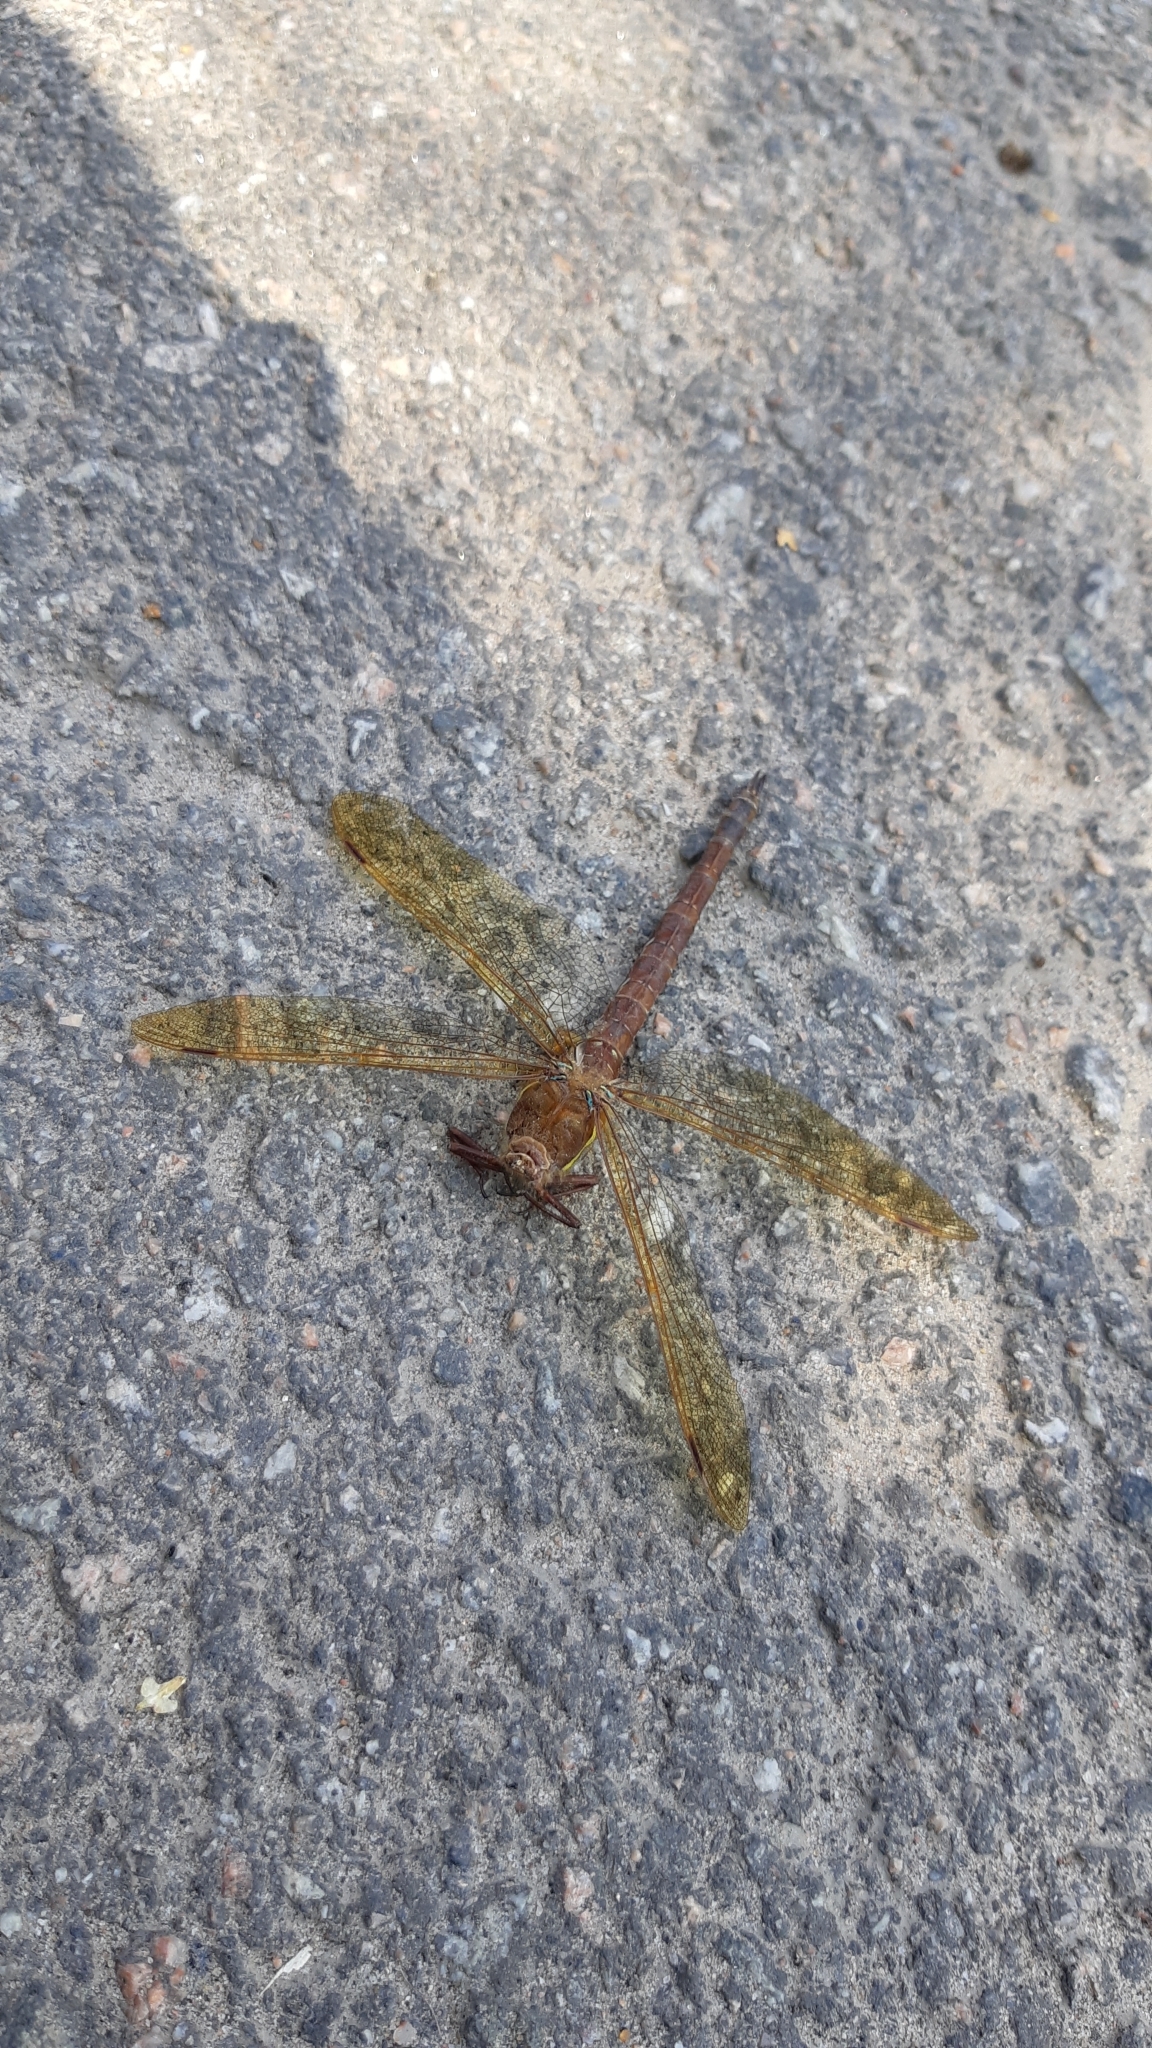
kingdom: Animalia
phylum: Arthropoda
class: Insecta
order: Odonata
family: Aeshnidae
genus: Aeshna
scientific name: Aeshna grandis
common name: Brown hawker
